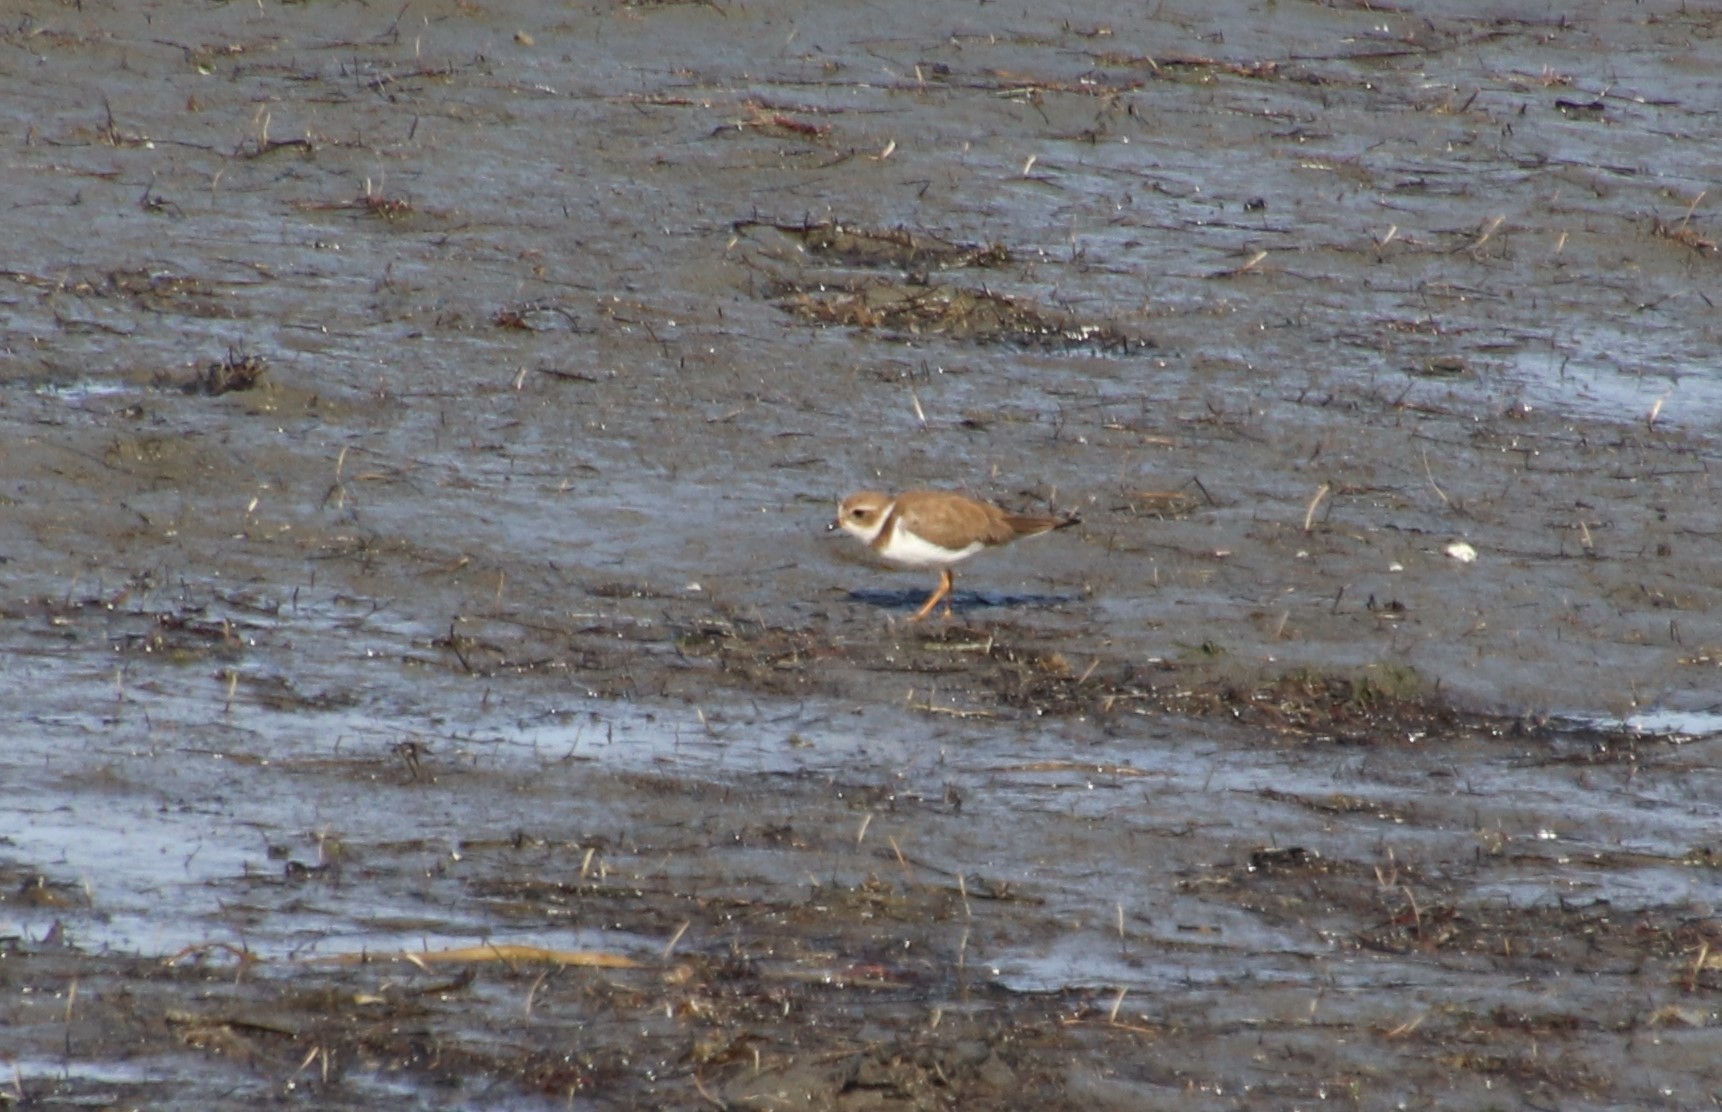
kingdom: Animalia
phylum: Chordata
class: Aves
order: Charadriiformes
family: Charadriidae
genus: Charadrius
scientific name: Charadrius semipalmatus
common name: Semipalmated plover
